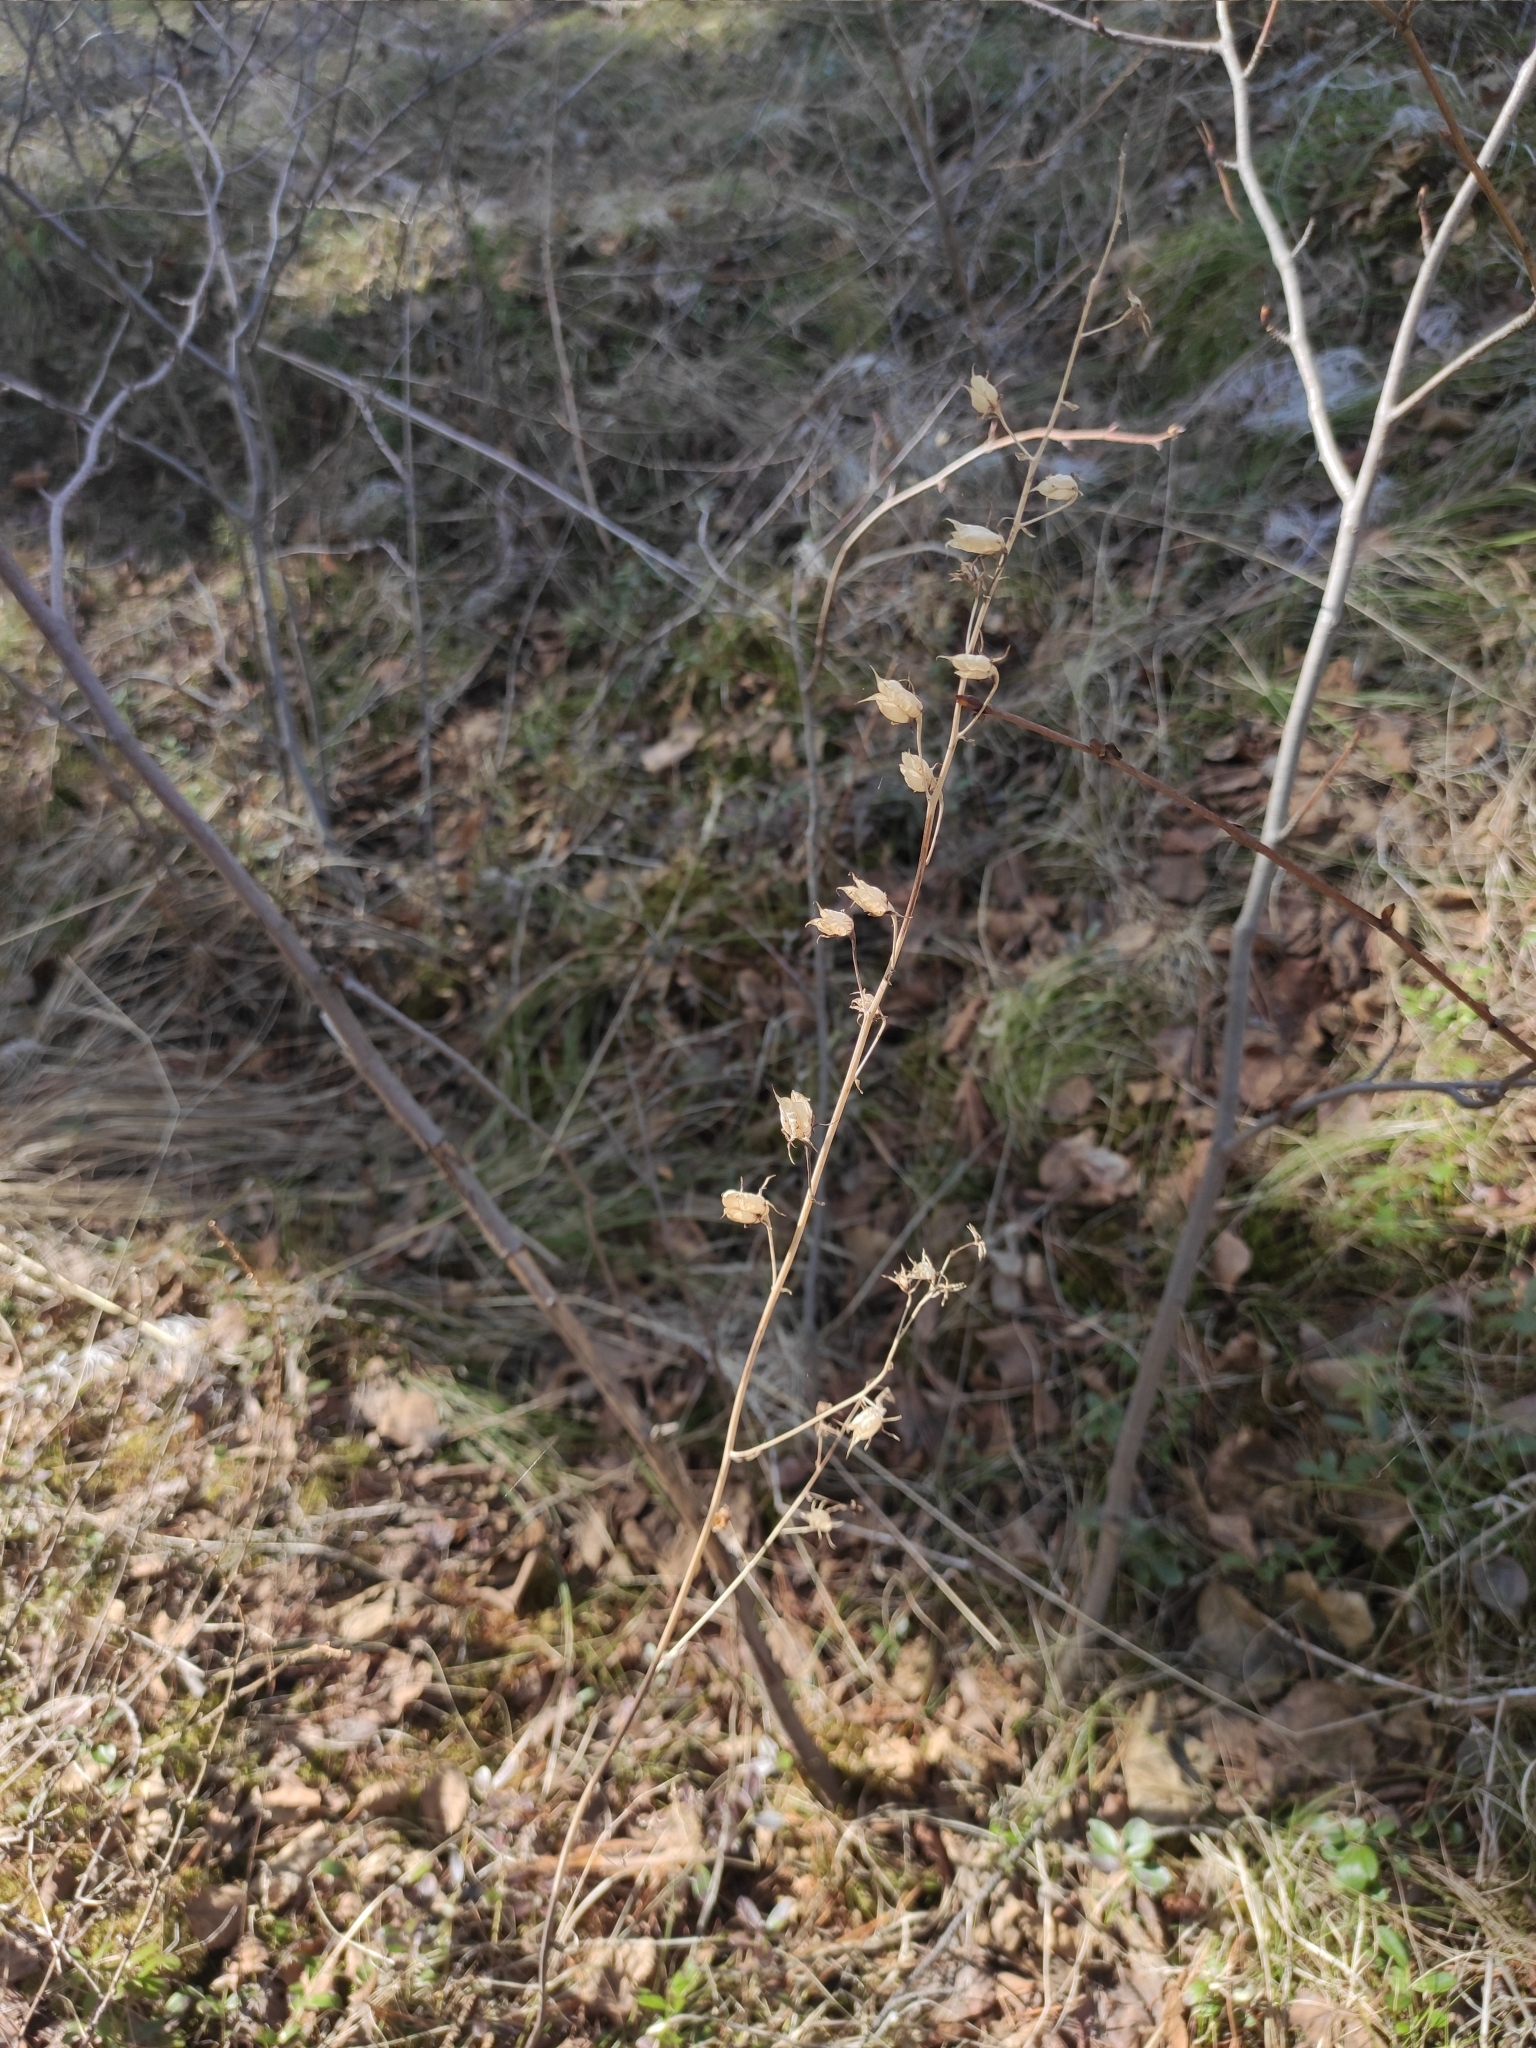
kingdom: Plantae
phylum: Tracheophyta
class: Liliopsida
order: Liliales
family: Melanthiaceae
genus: Anticlea
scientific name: Anticlea sibirica
